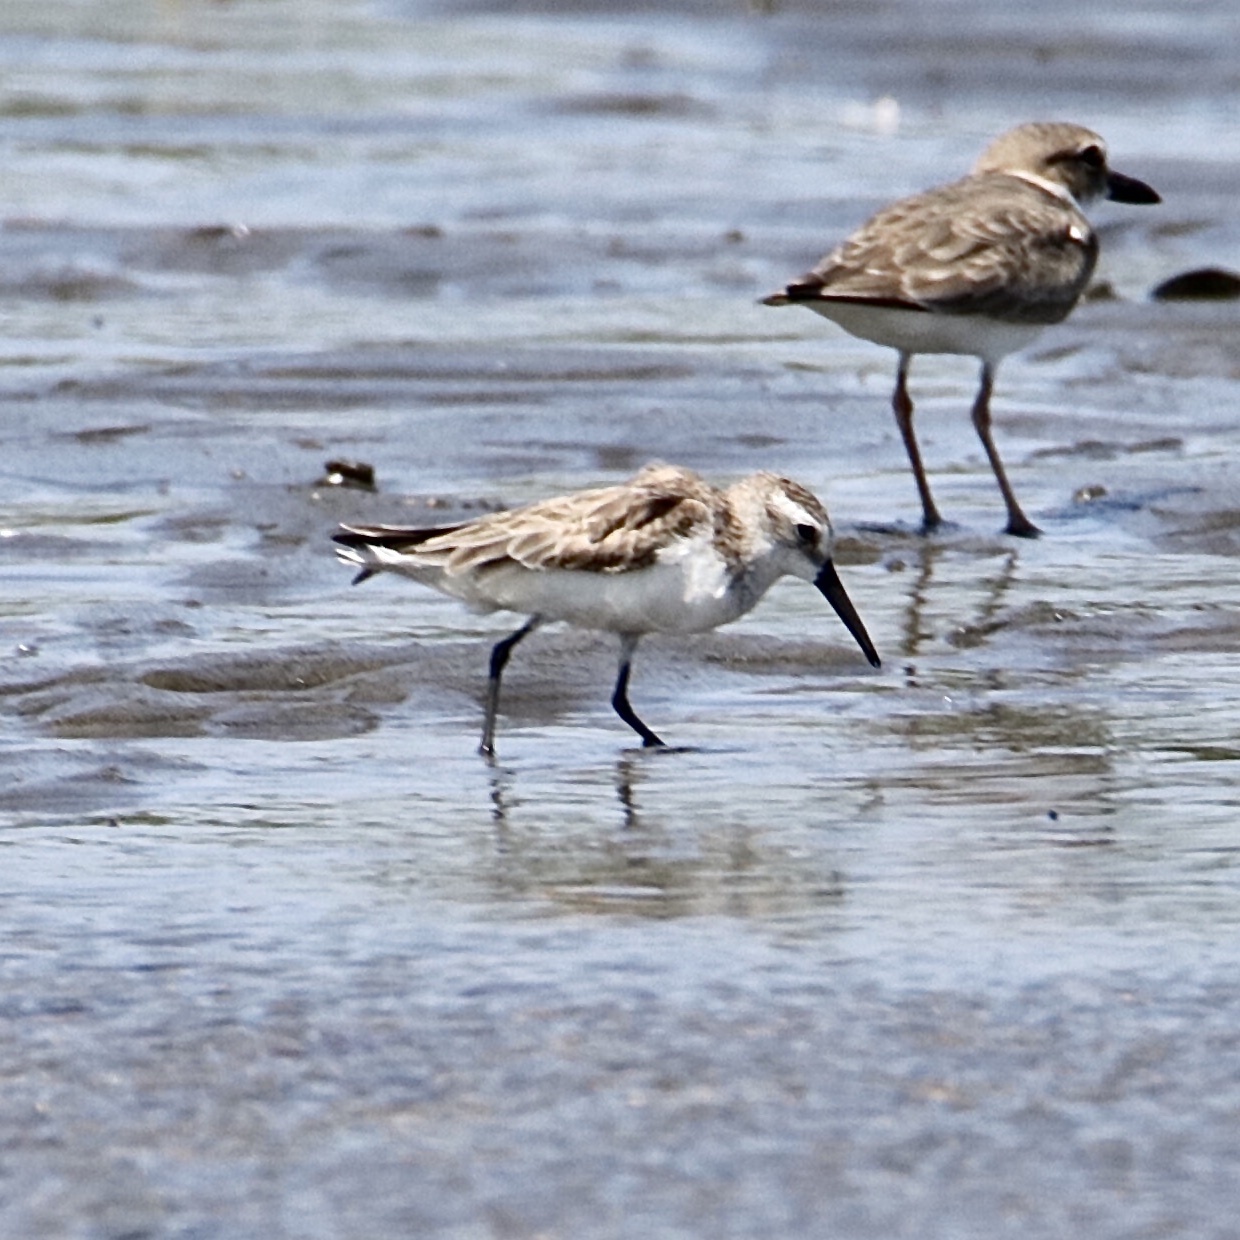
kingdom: Animalia
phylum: Chordata
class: Aves
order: Charadriiformes
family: Scolopacidae
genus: Calidris
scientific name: Calidris mauri
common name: Western sandpiper
